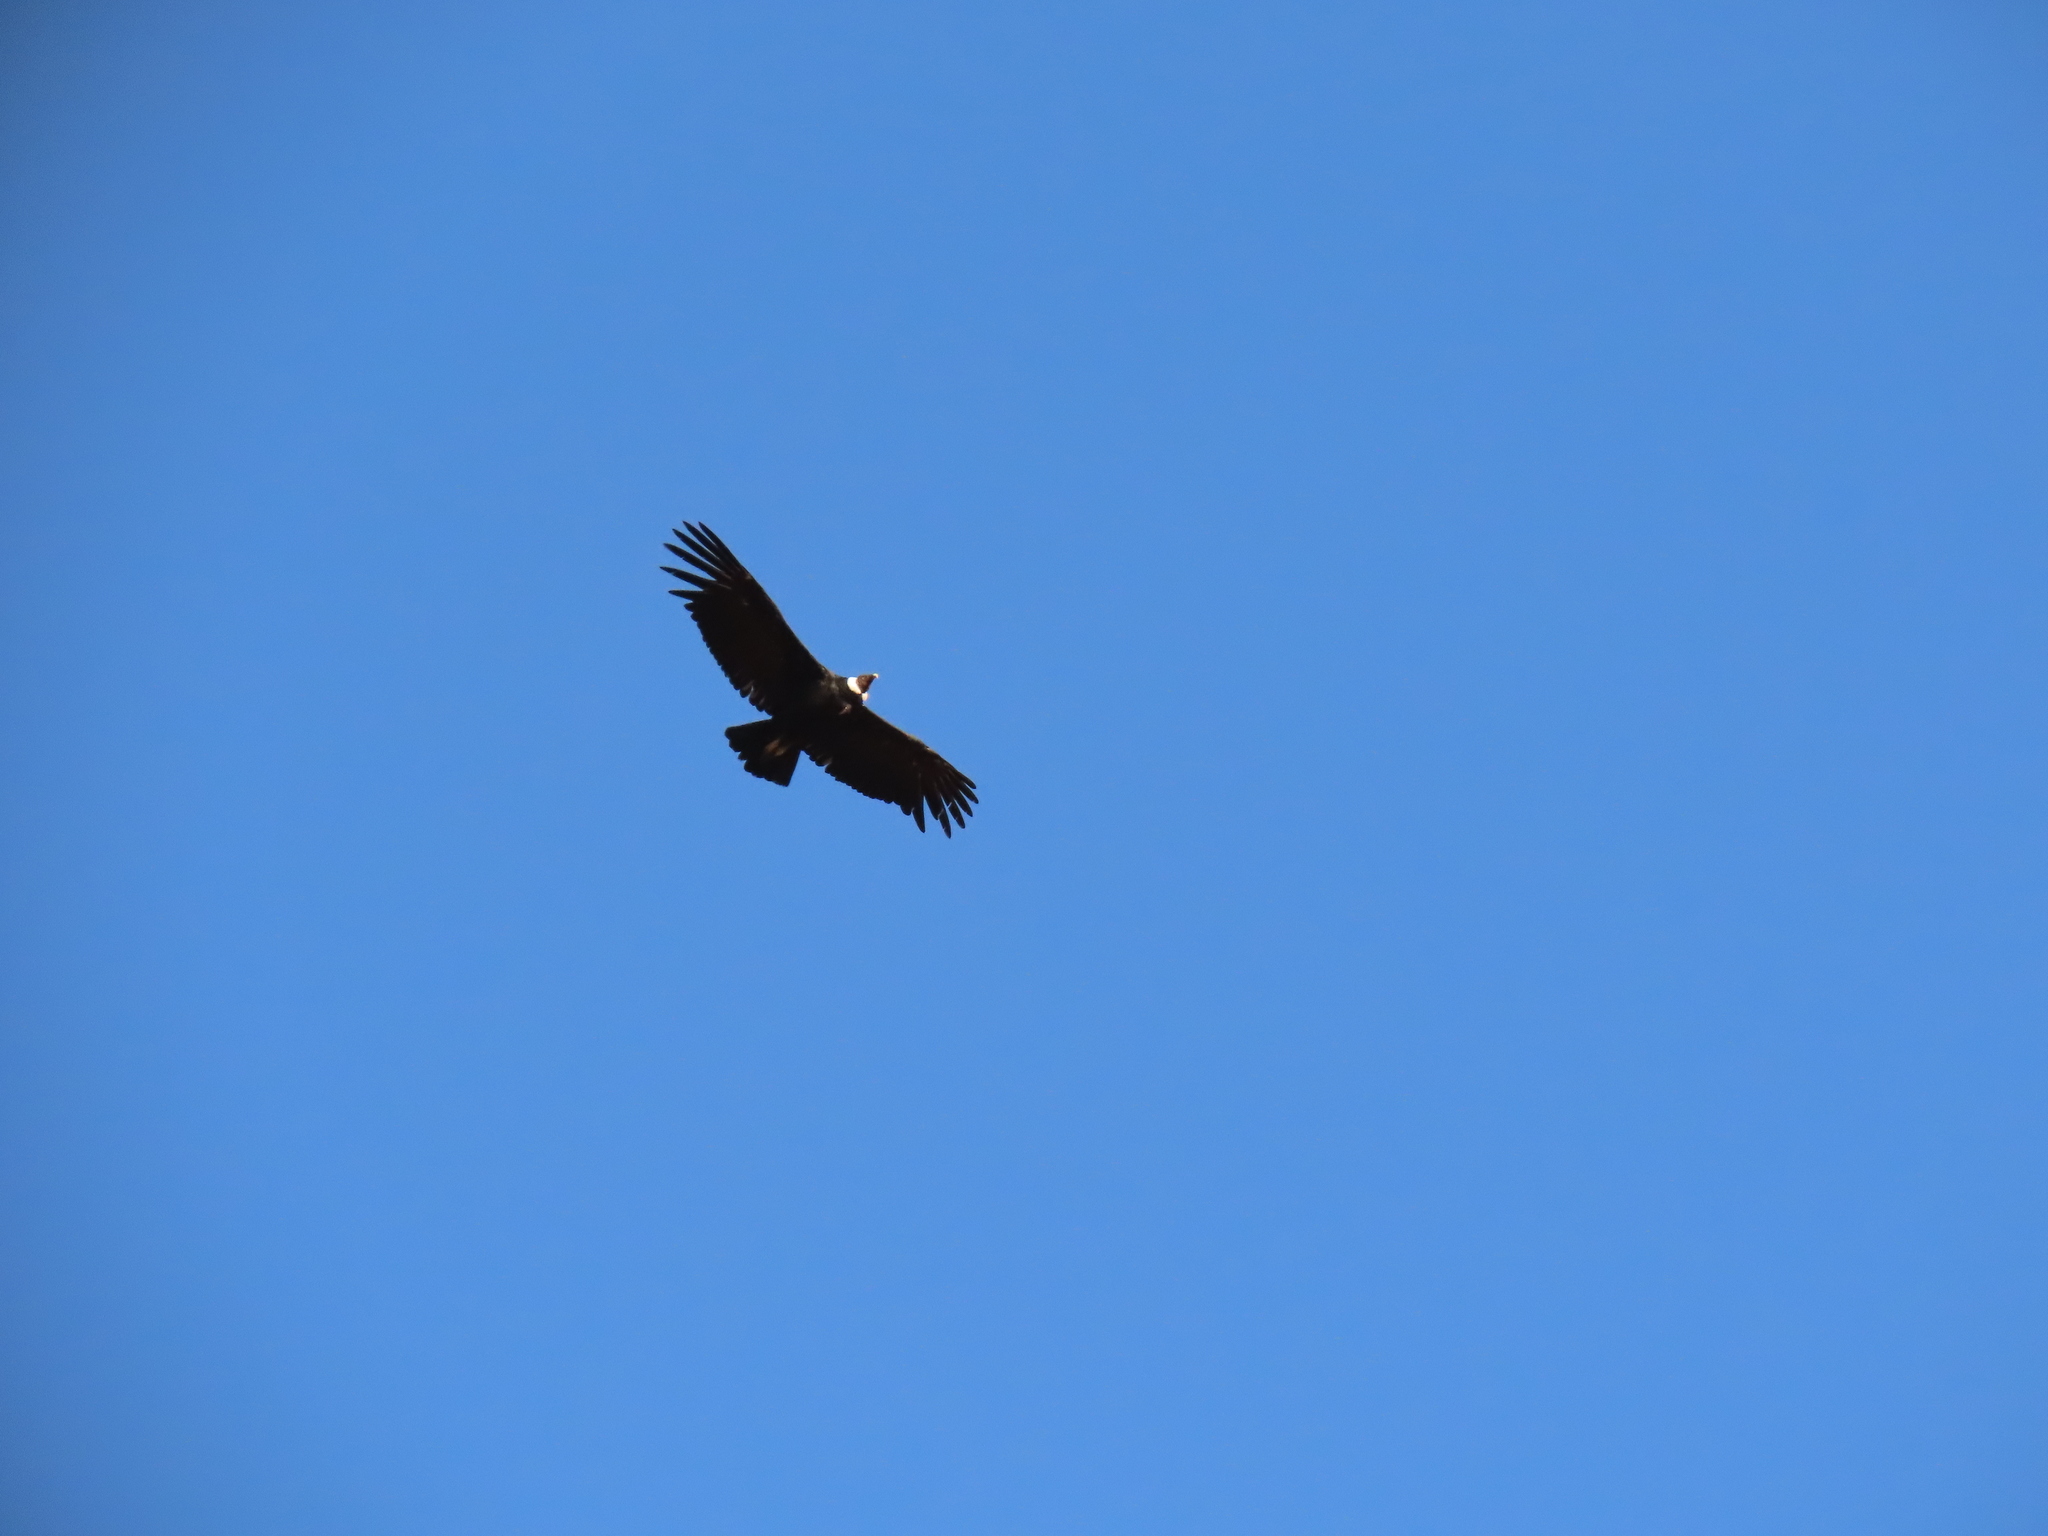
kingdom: Animalia
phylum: Chordata
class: Aves
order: Accipitriformes
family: Cathartidae
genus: Vultur
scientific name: Vultur gryphus
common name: Andean condor
